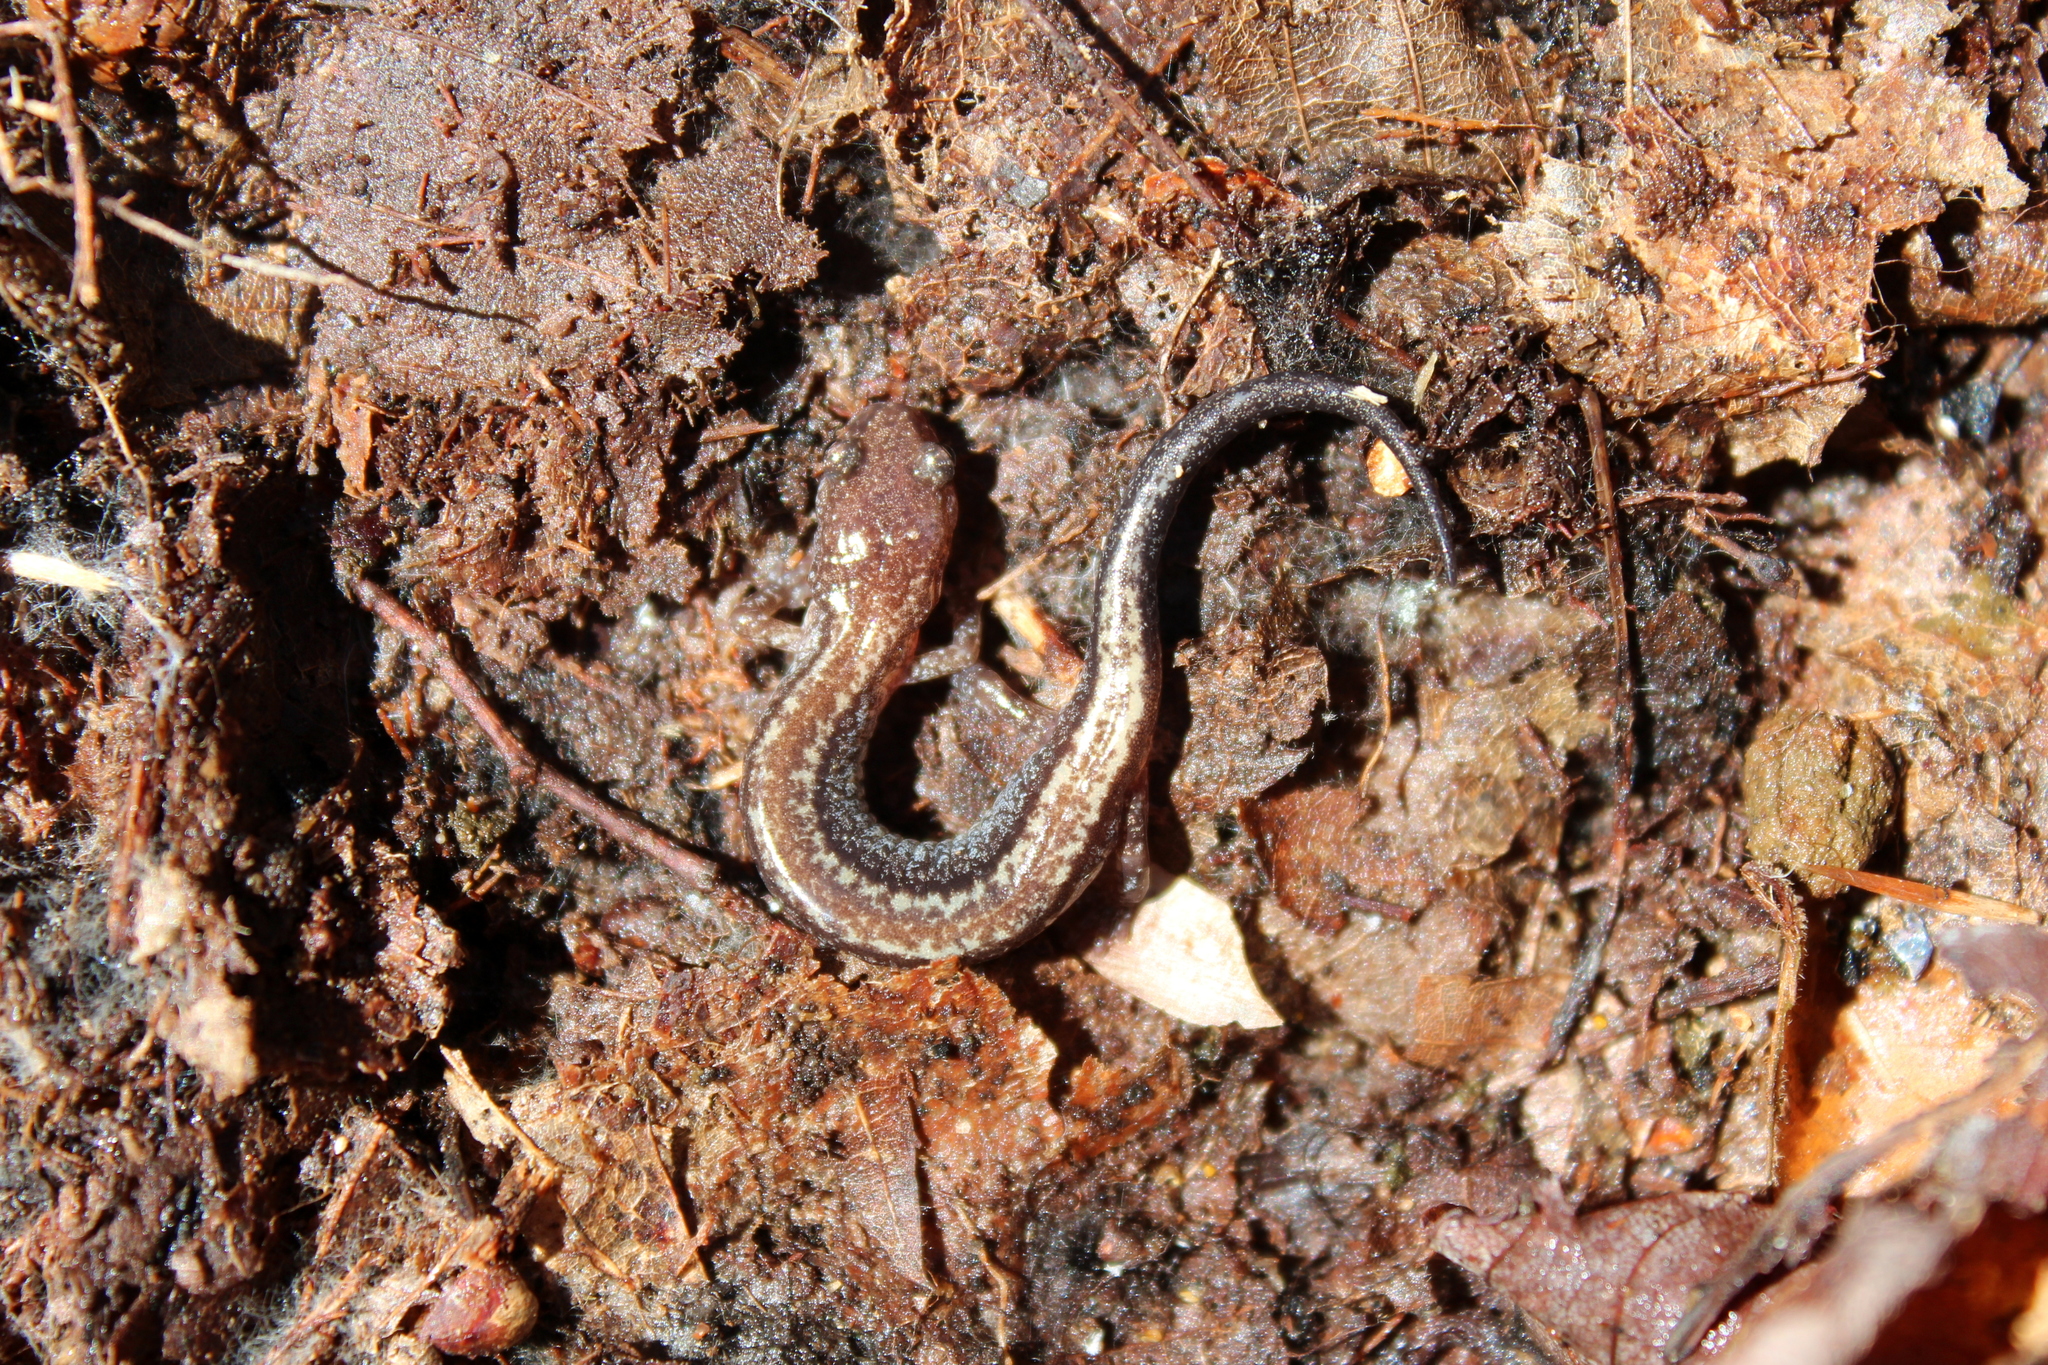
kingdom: Animalia
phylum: Chordata
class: Amphibia
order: Caudata
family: Plethodontidae
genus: Plethodon
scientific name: Plethodon cinereus
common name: Redback salamander
